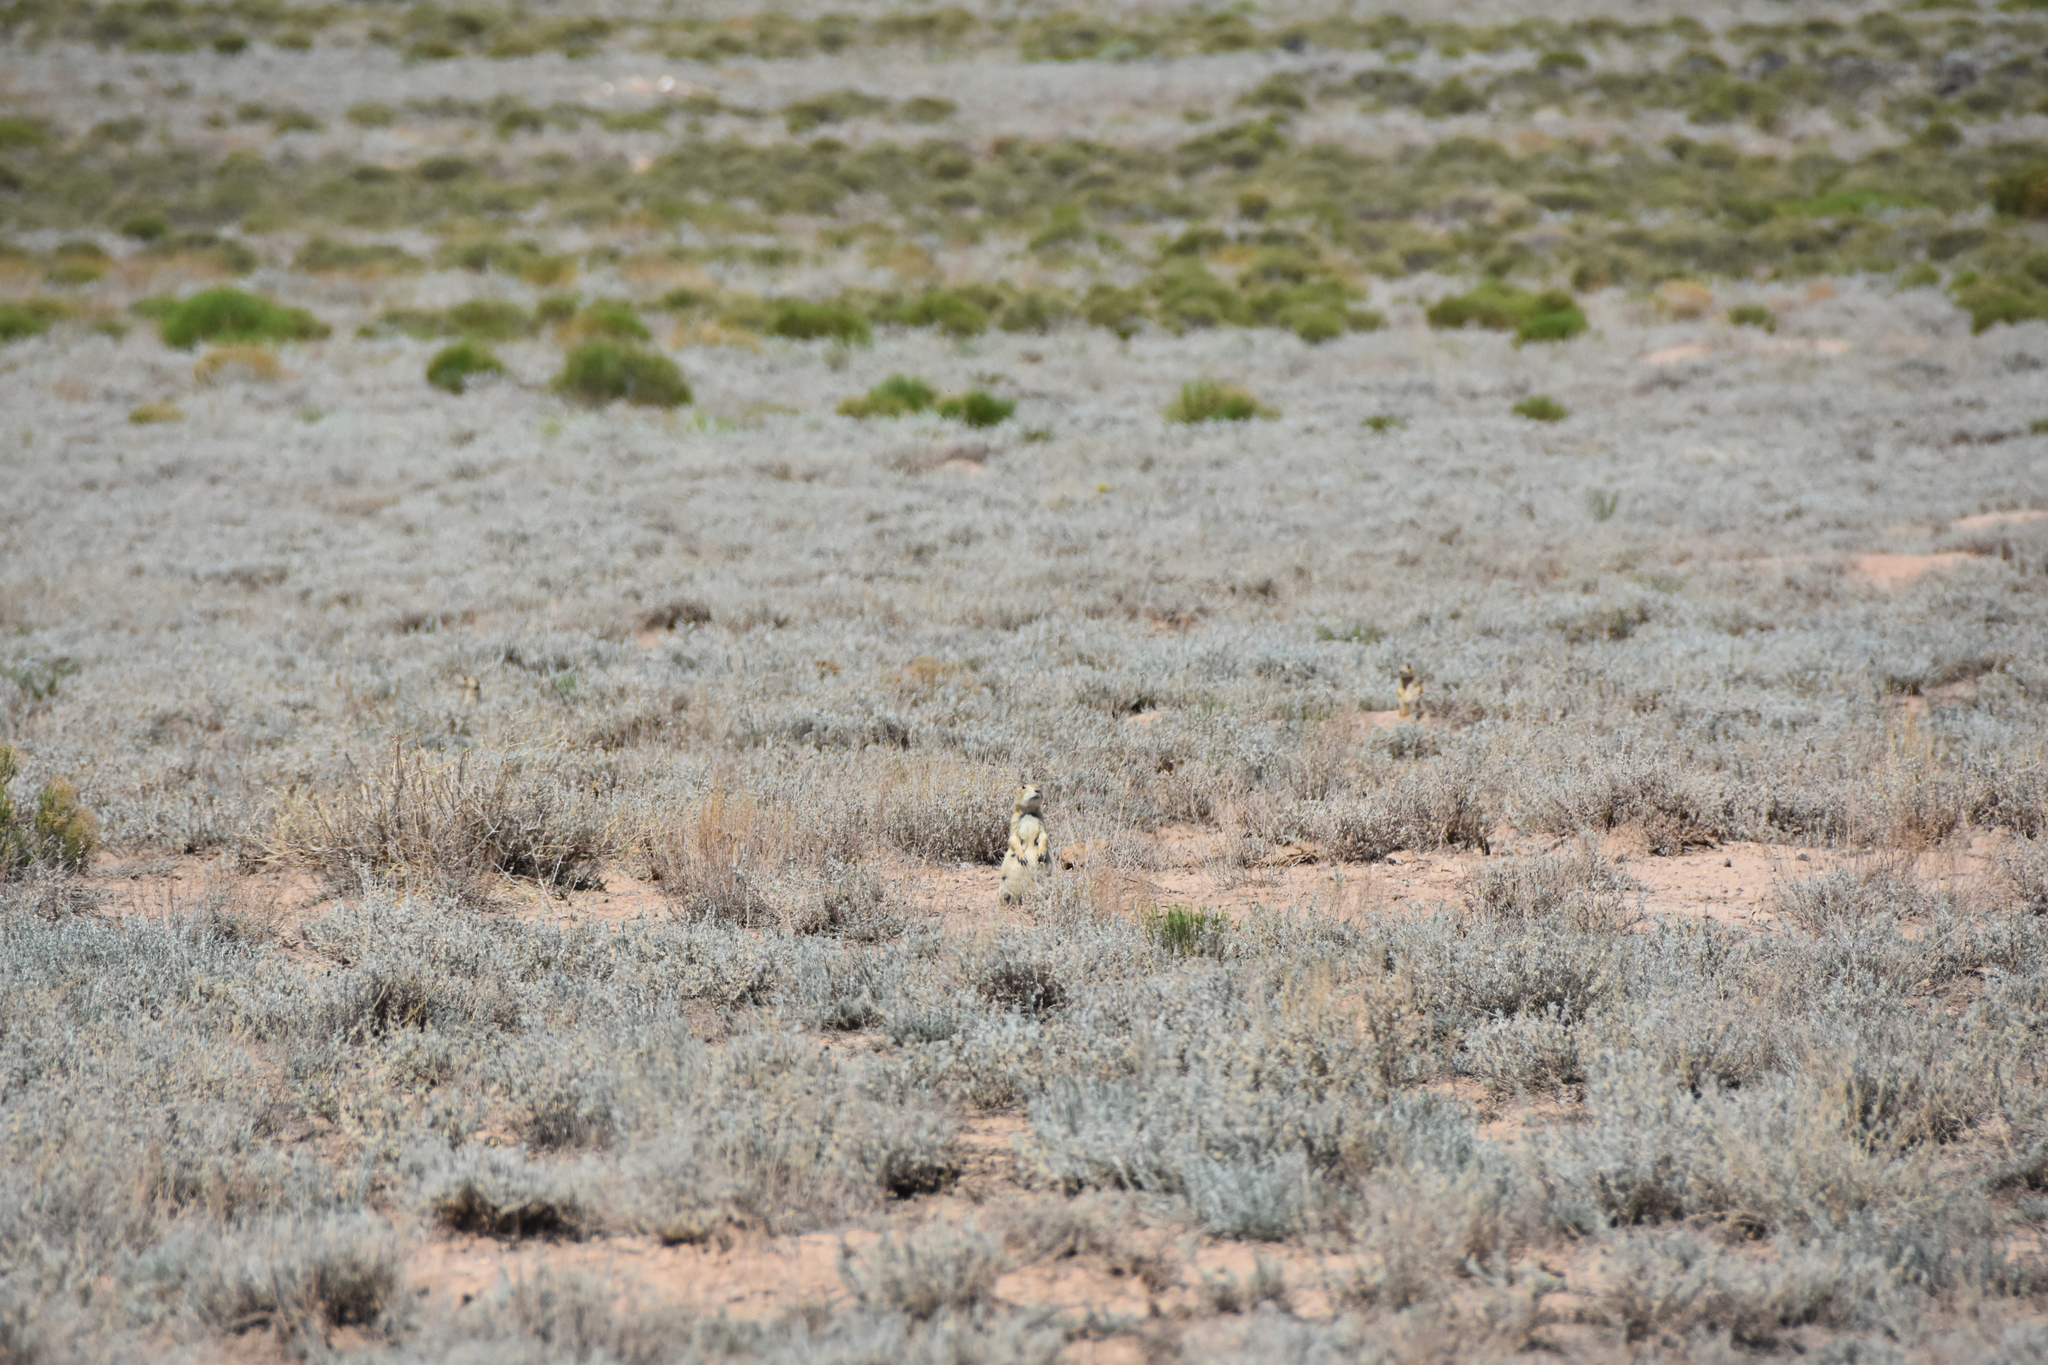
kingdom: Animalia
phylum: Chordata
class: Mammalia
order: Rodentia
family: Sciuridae
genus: Cynomys
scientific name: Cynomys gunnisoni
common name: Gunnison's prairie dog
